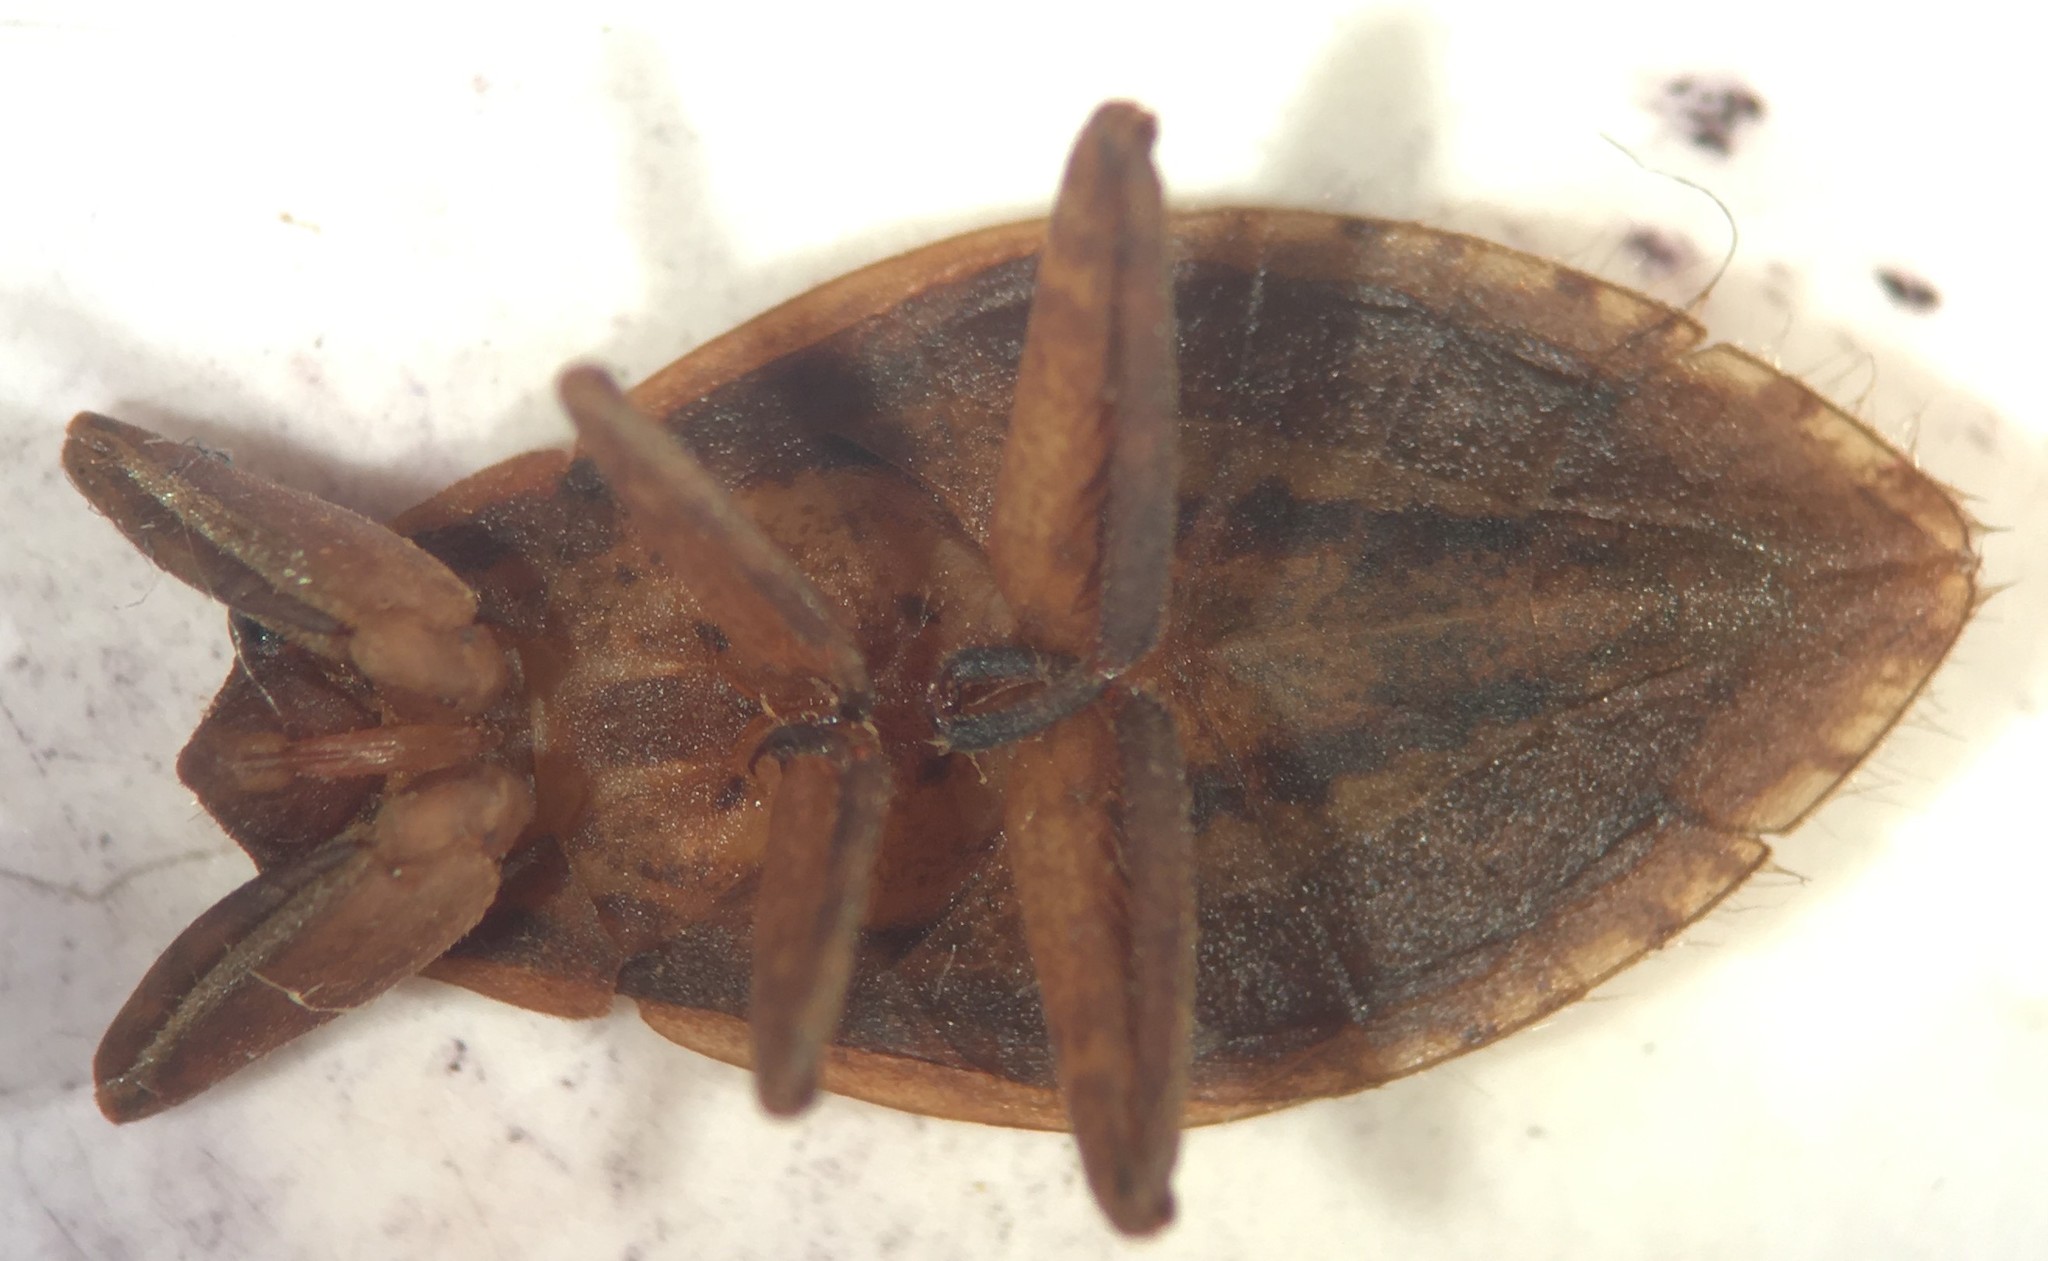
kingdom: Animalia
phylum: Arthropoda
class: Insecta
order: Hemiptera
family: Belostomatidae
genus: Abedus
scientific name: Abedus immaculatus
